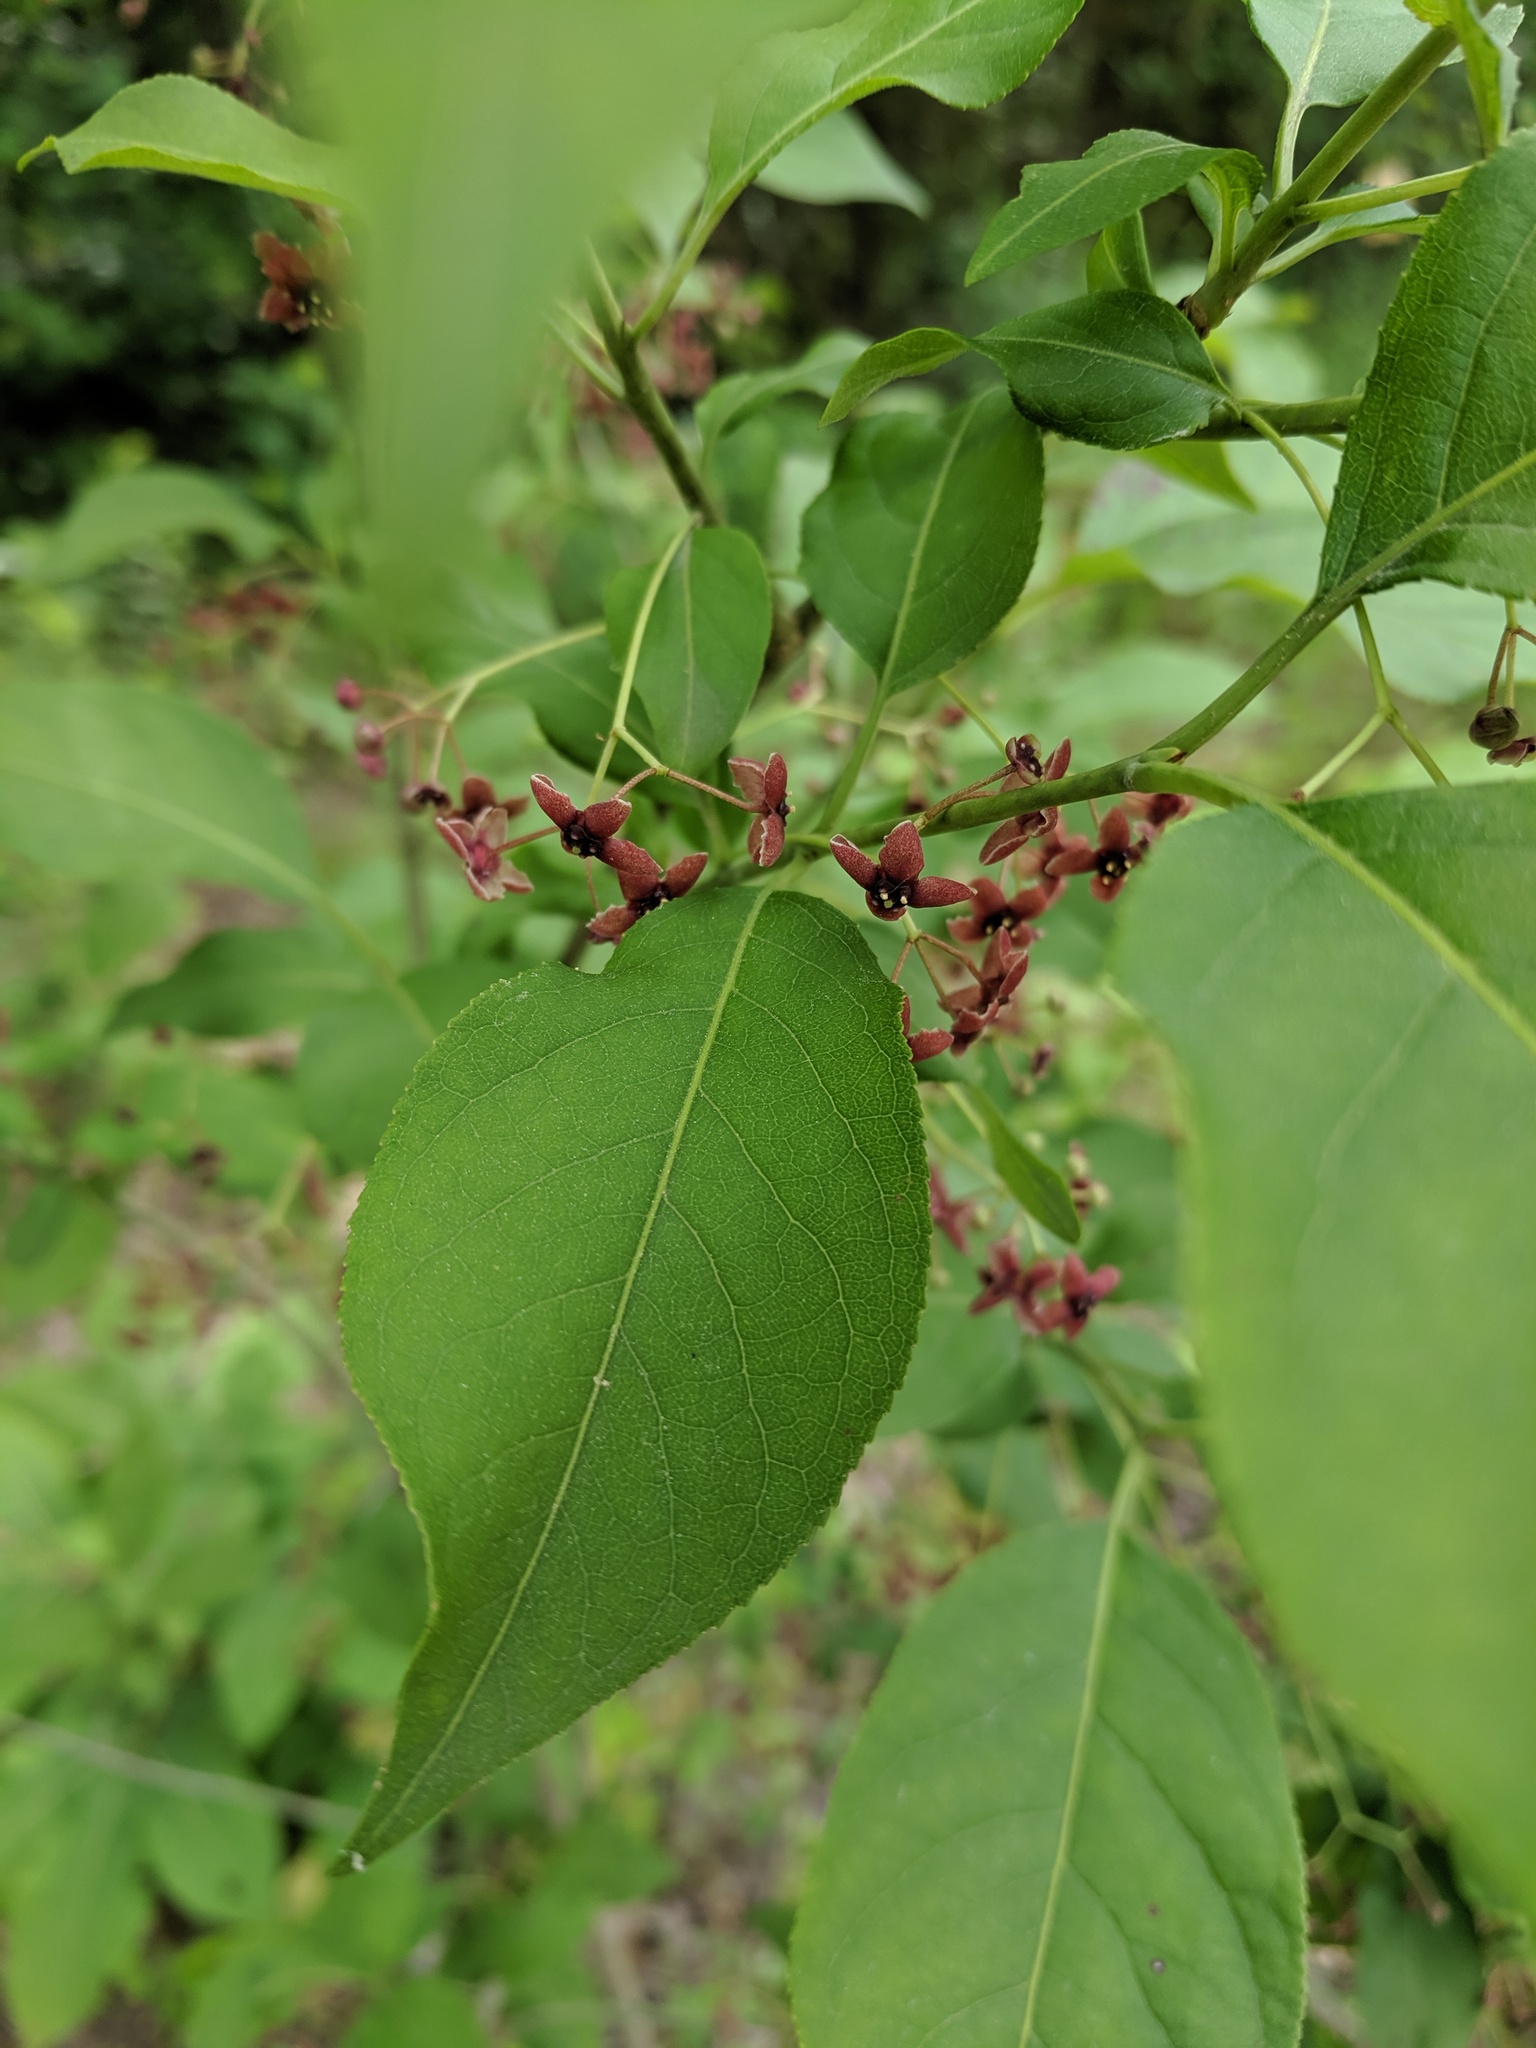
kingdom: Plantae
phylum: Tracheophyta
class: Magnoliopsida
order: Celastrales
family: Celastraceae
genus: Euonymus
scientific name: Euonymus atropurpureus
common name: Eastern wahoo
